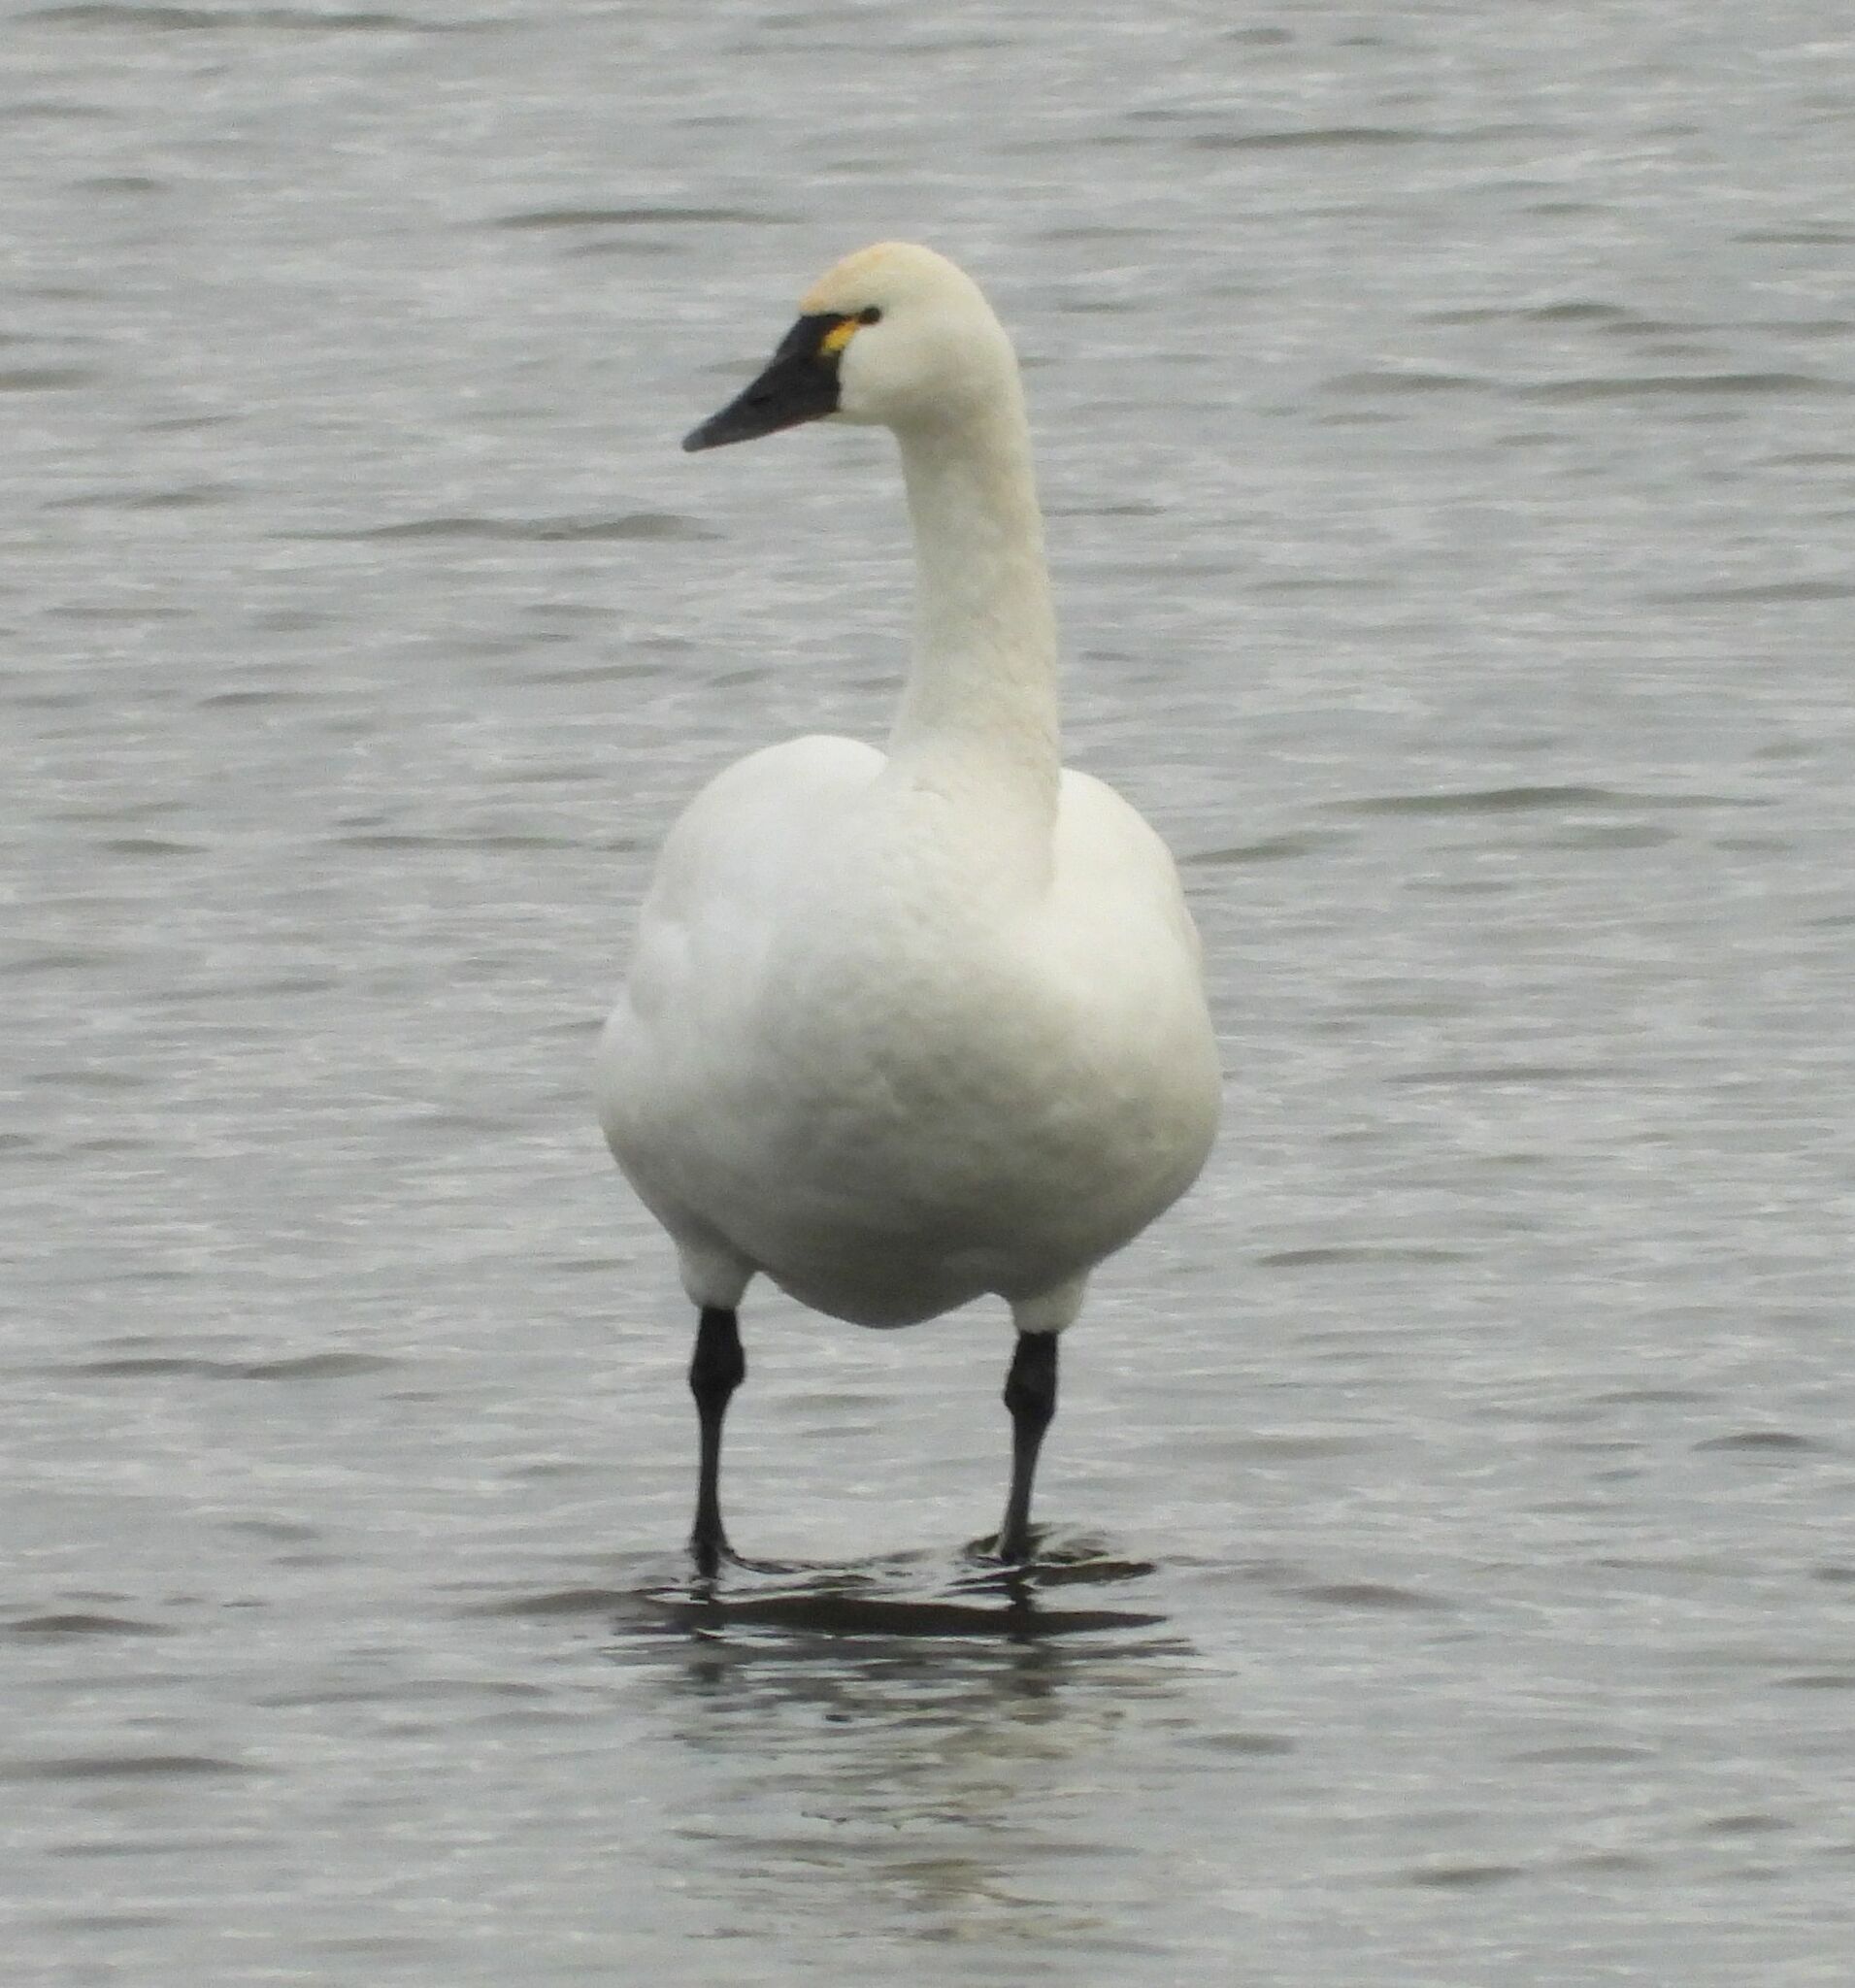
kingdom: Animalia
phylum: Chordata
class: Aves
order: Anseriformes
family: Anatidae
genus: Cygnus
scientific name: Cygnus columbianus
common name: Tundra swan
